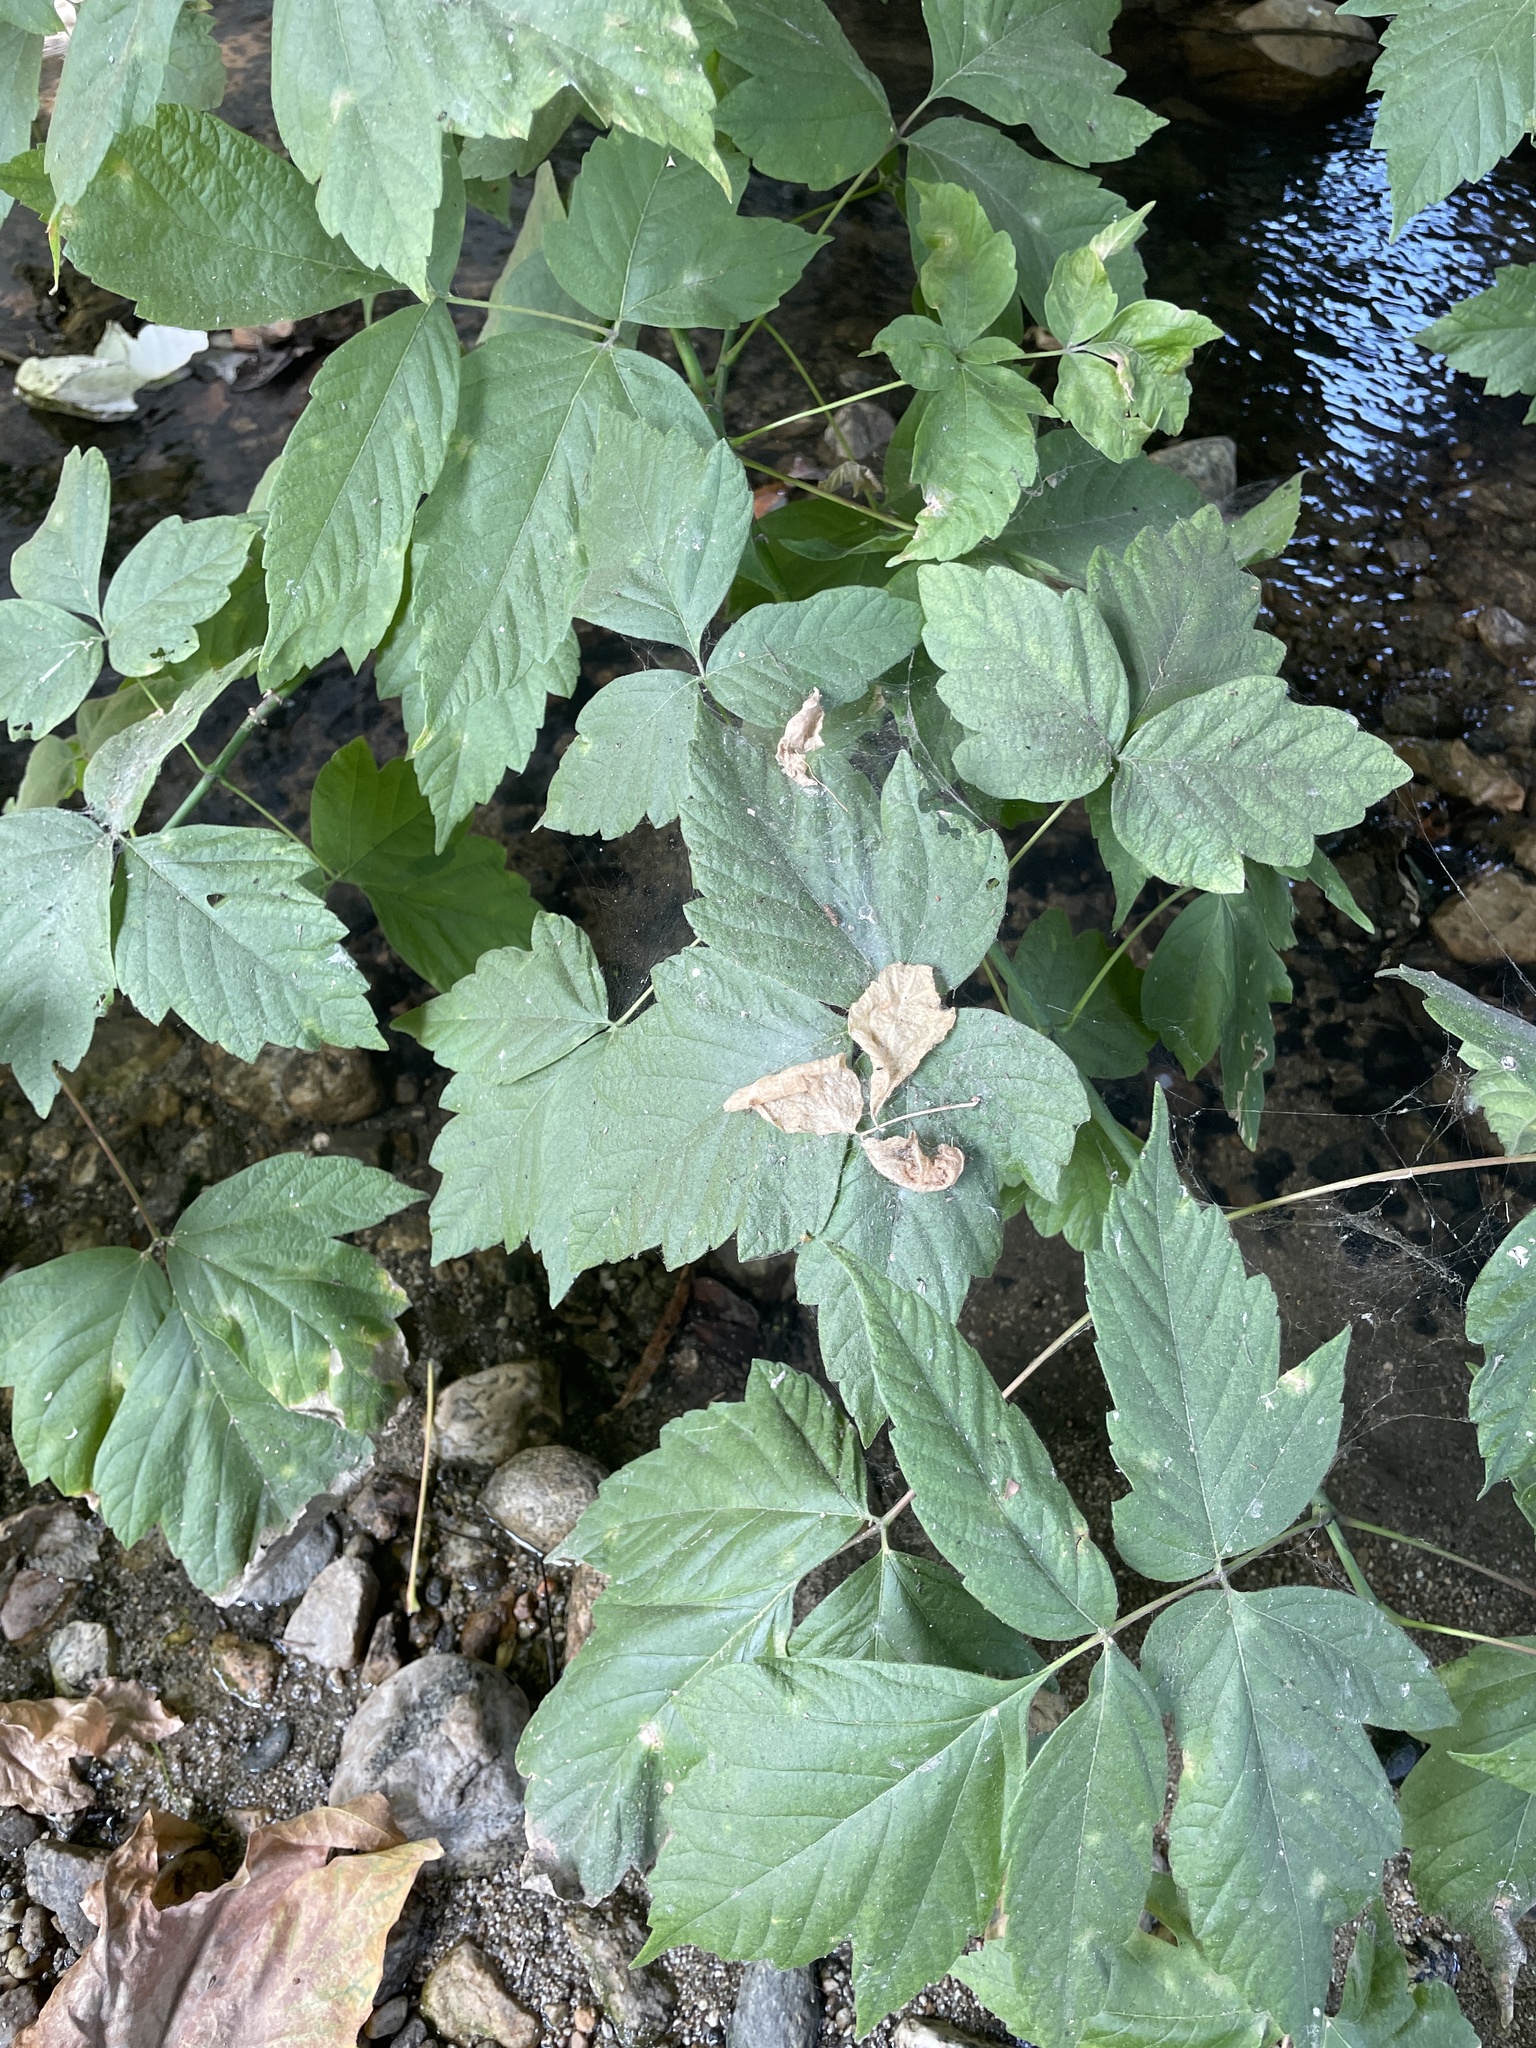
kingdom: Plantae
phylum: Tracheophyta
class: Magnoliopsida
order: Sapindales
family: Sapindaceae
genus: Acer
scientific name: Acer negundo
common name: Ashleaf maple
